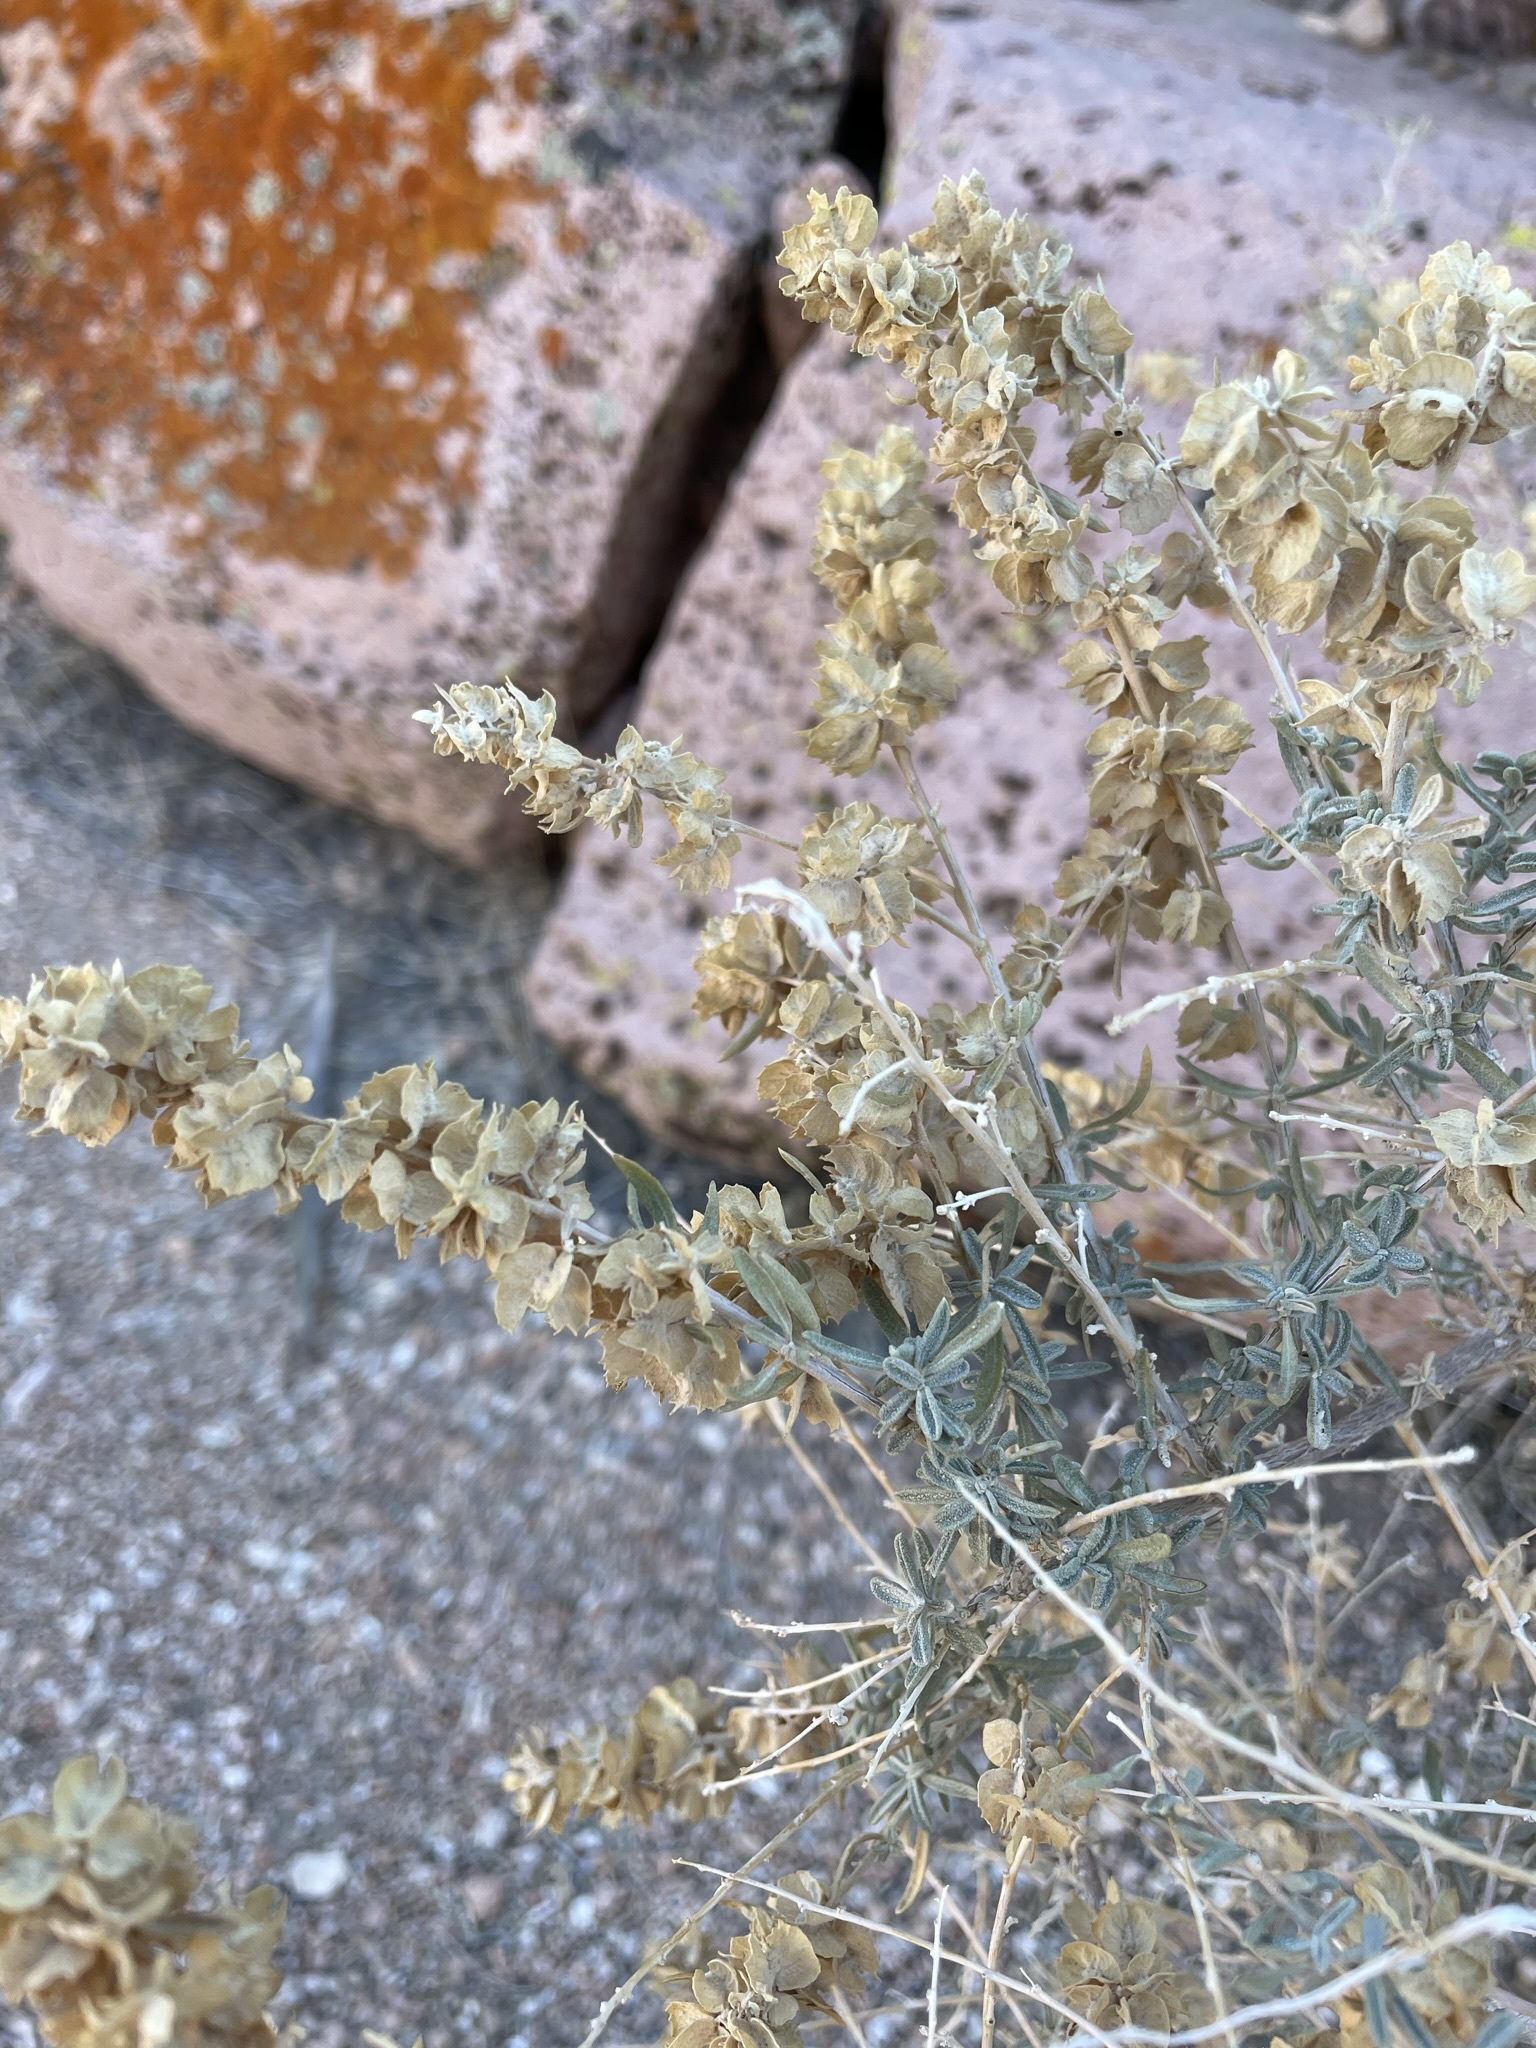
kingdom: Plantae
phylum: Tracheophyta
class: Magnoliopsida
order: Caryophyllales
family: Amaranthaceae
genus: Atriplex
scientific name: Atriplex canescens
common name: Four-wing saltbush
